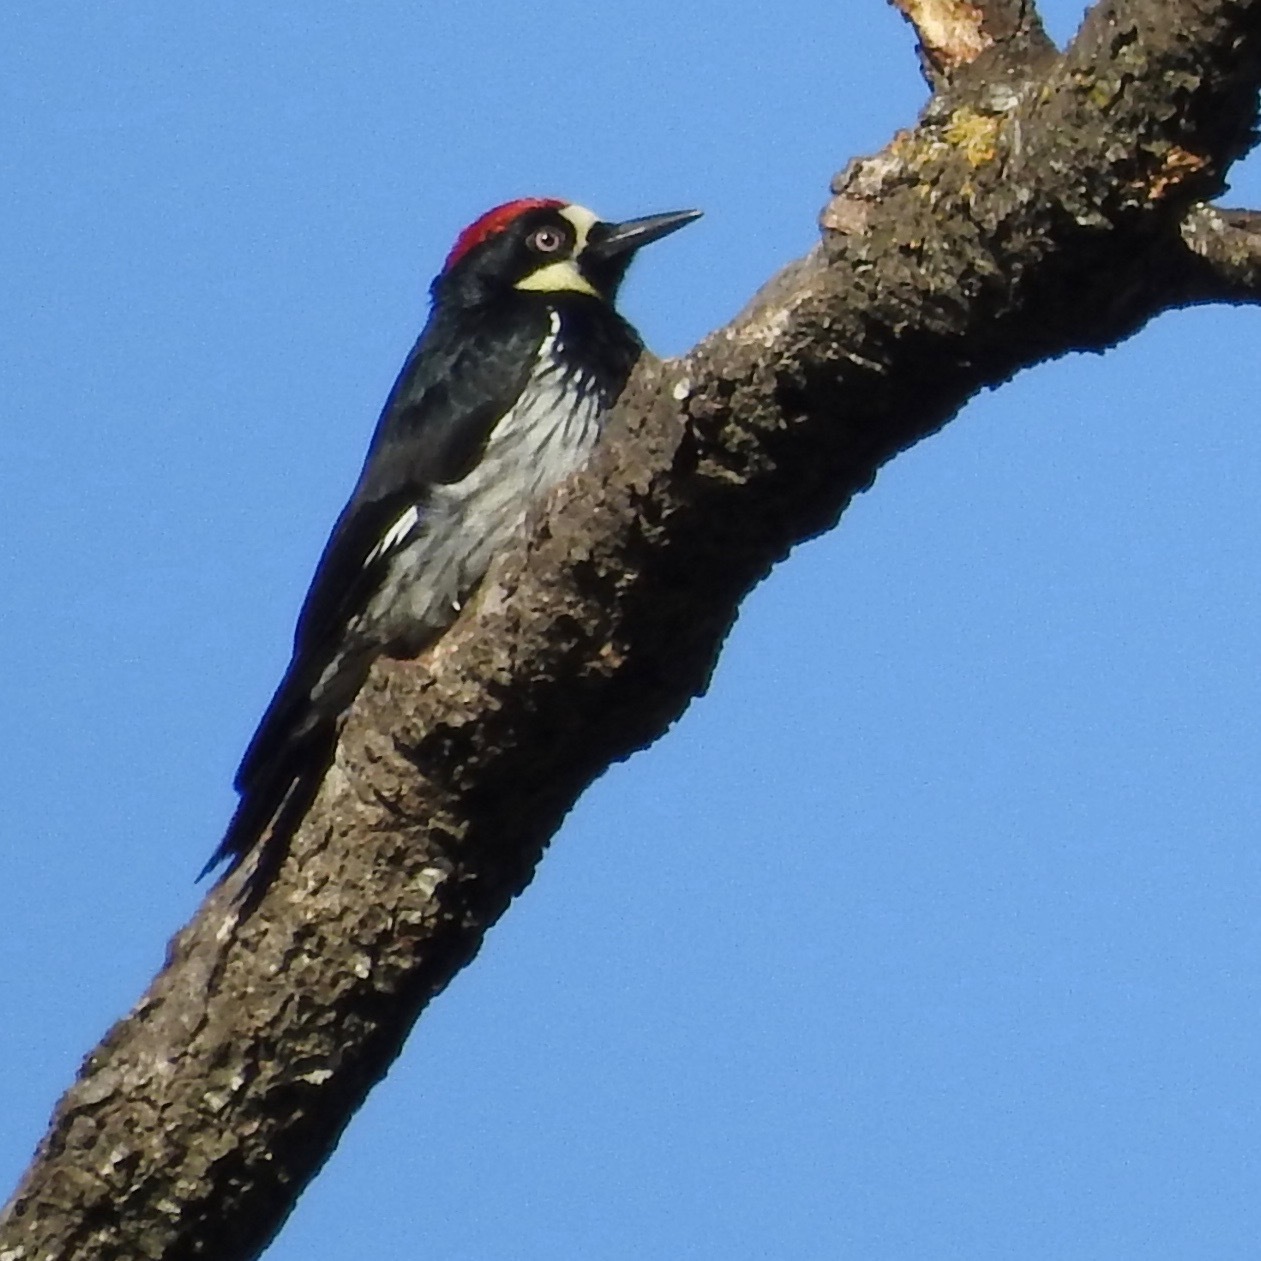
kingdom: Animalia
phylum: Chordata
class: Aves
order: Piciformes
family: Picidae
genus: Melanerpes
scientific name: Melanerpes formicivorus
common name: Acorn woodpecker
